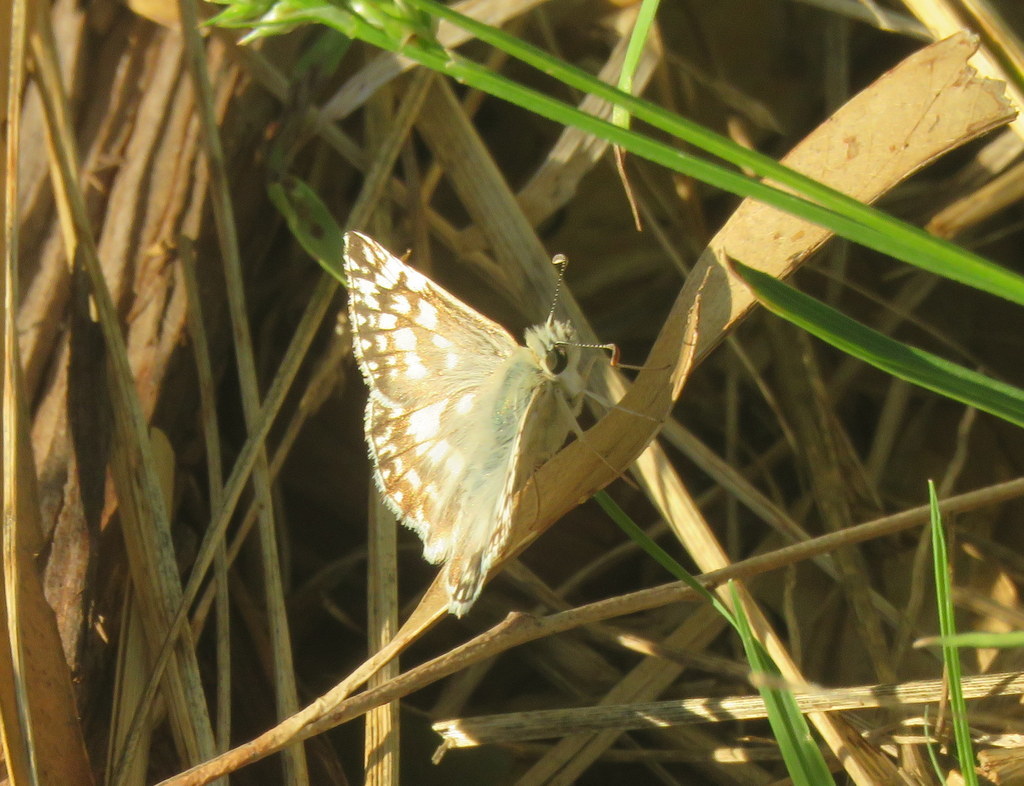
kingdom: Animalia
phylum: Arthropoda
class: Insecta
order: Lepidoptera
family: Hesperiidae
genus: Heliopetes
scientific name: Heliopetes americanus
